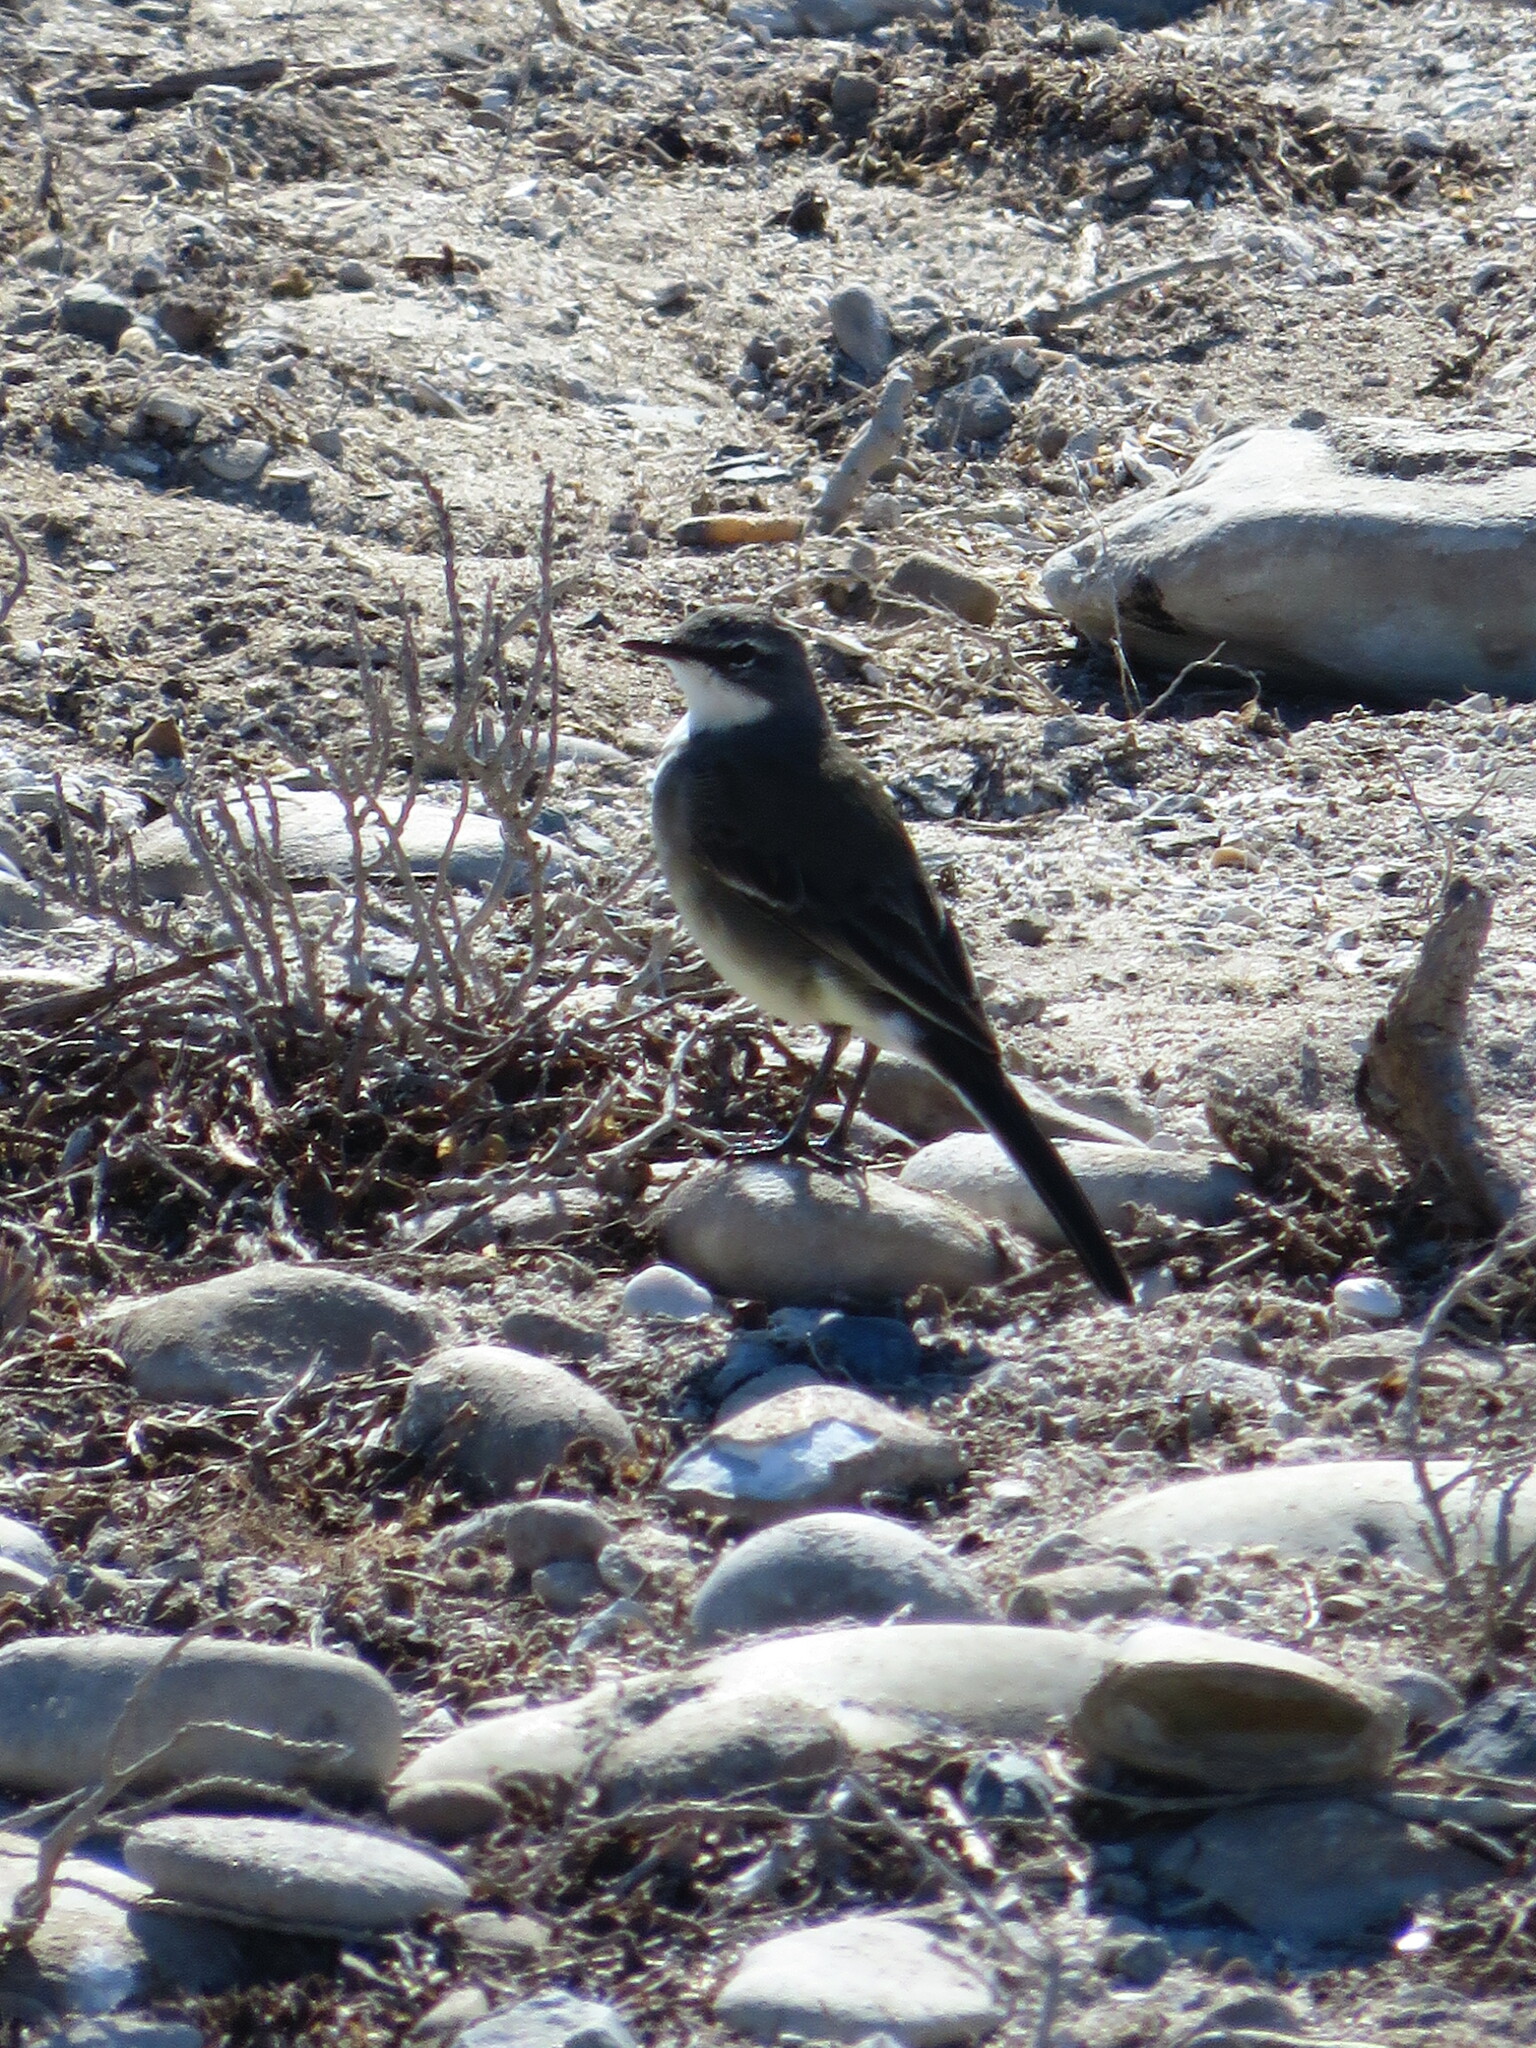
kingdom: Animalia
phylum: Chordata
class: Aves
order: Passeriformes
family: Motacillidae
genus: Motacilla
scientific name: Motacilla capensis
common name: Cape wagtail
